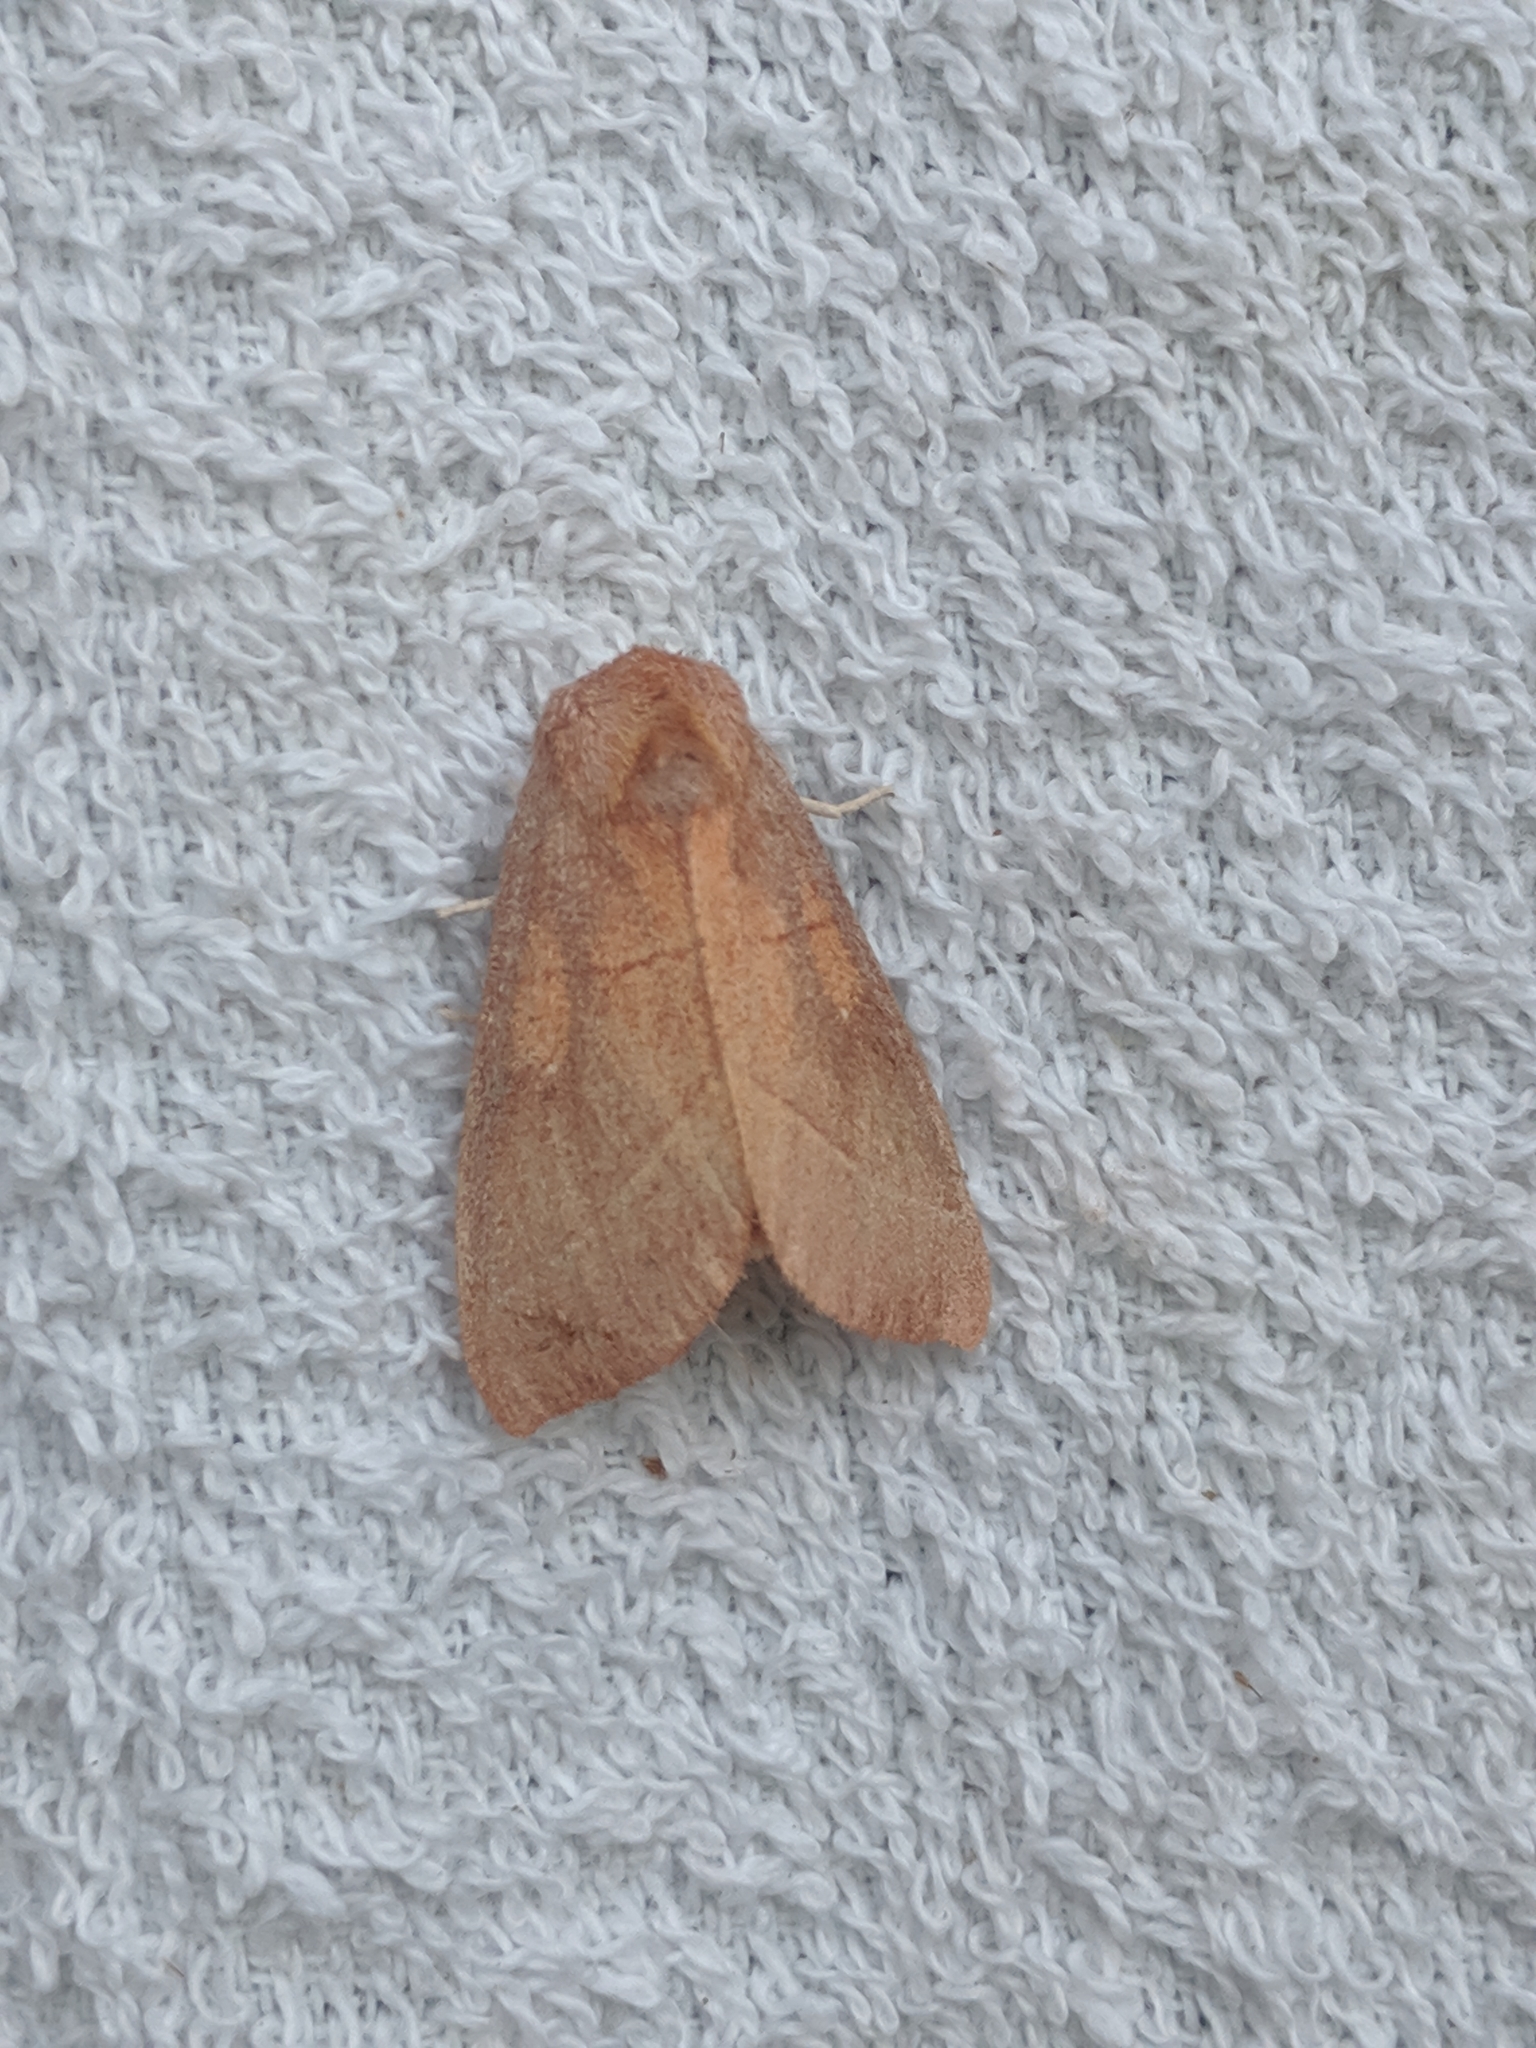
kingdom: Animalia
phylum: Arthropoda
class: Insecta
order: Lepidoptera
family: Notodontidae
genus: Nadata
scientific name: Nadata gibbosa
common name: White-dotted prominent
